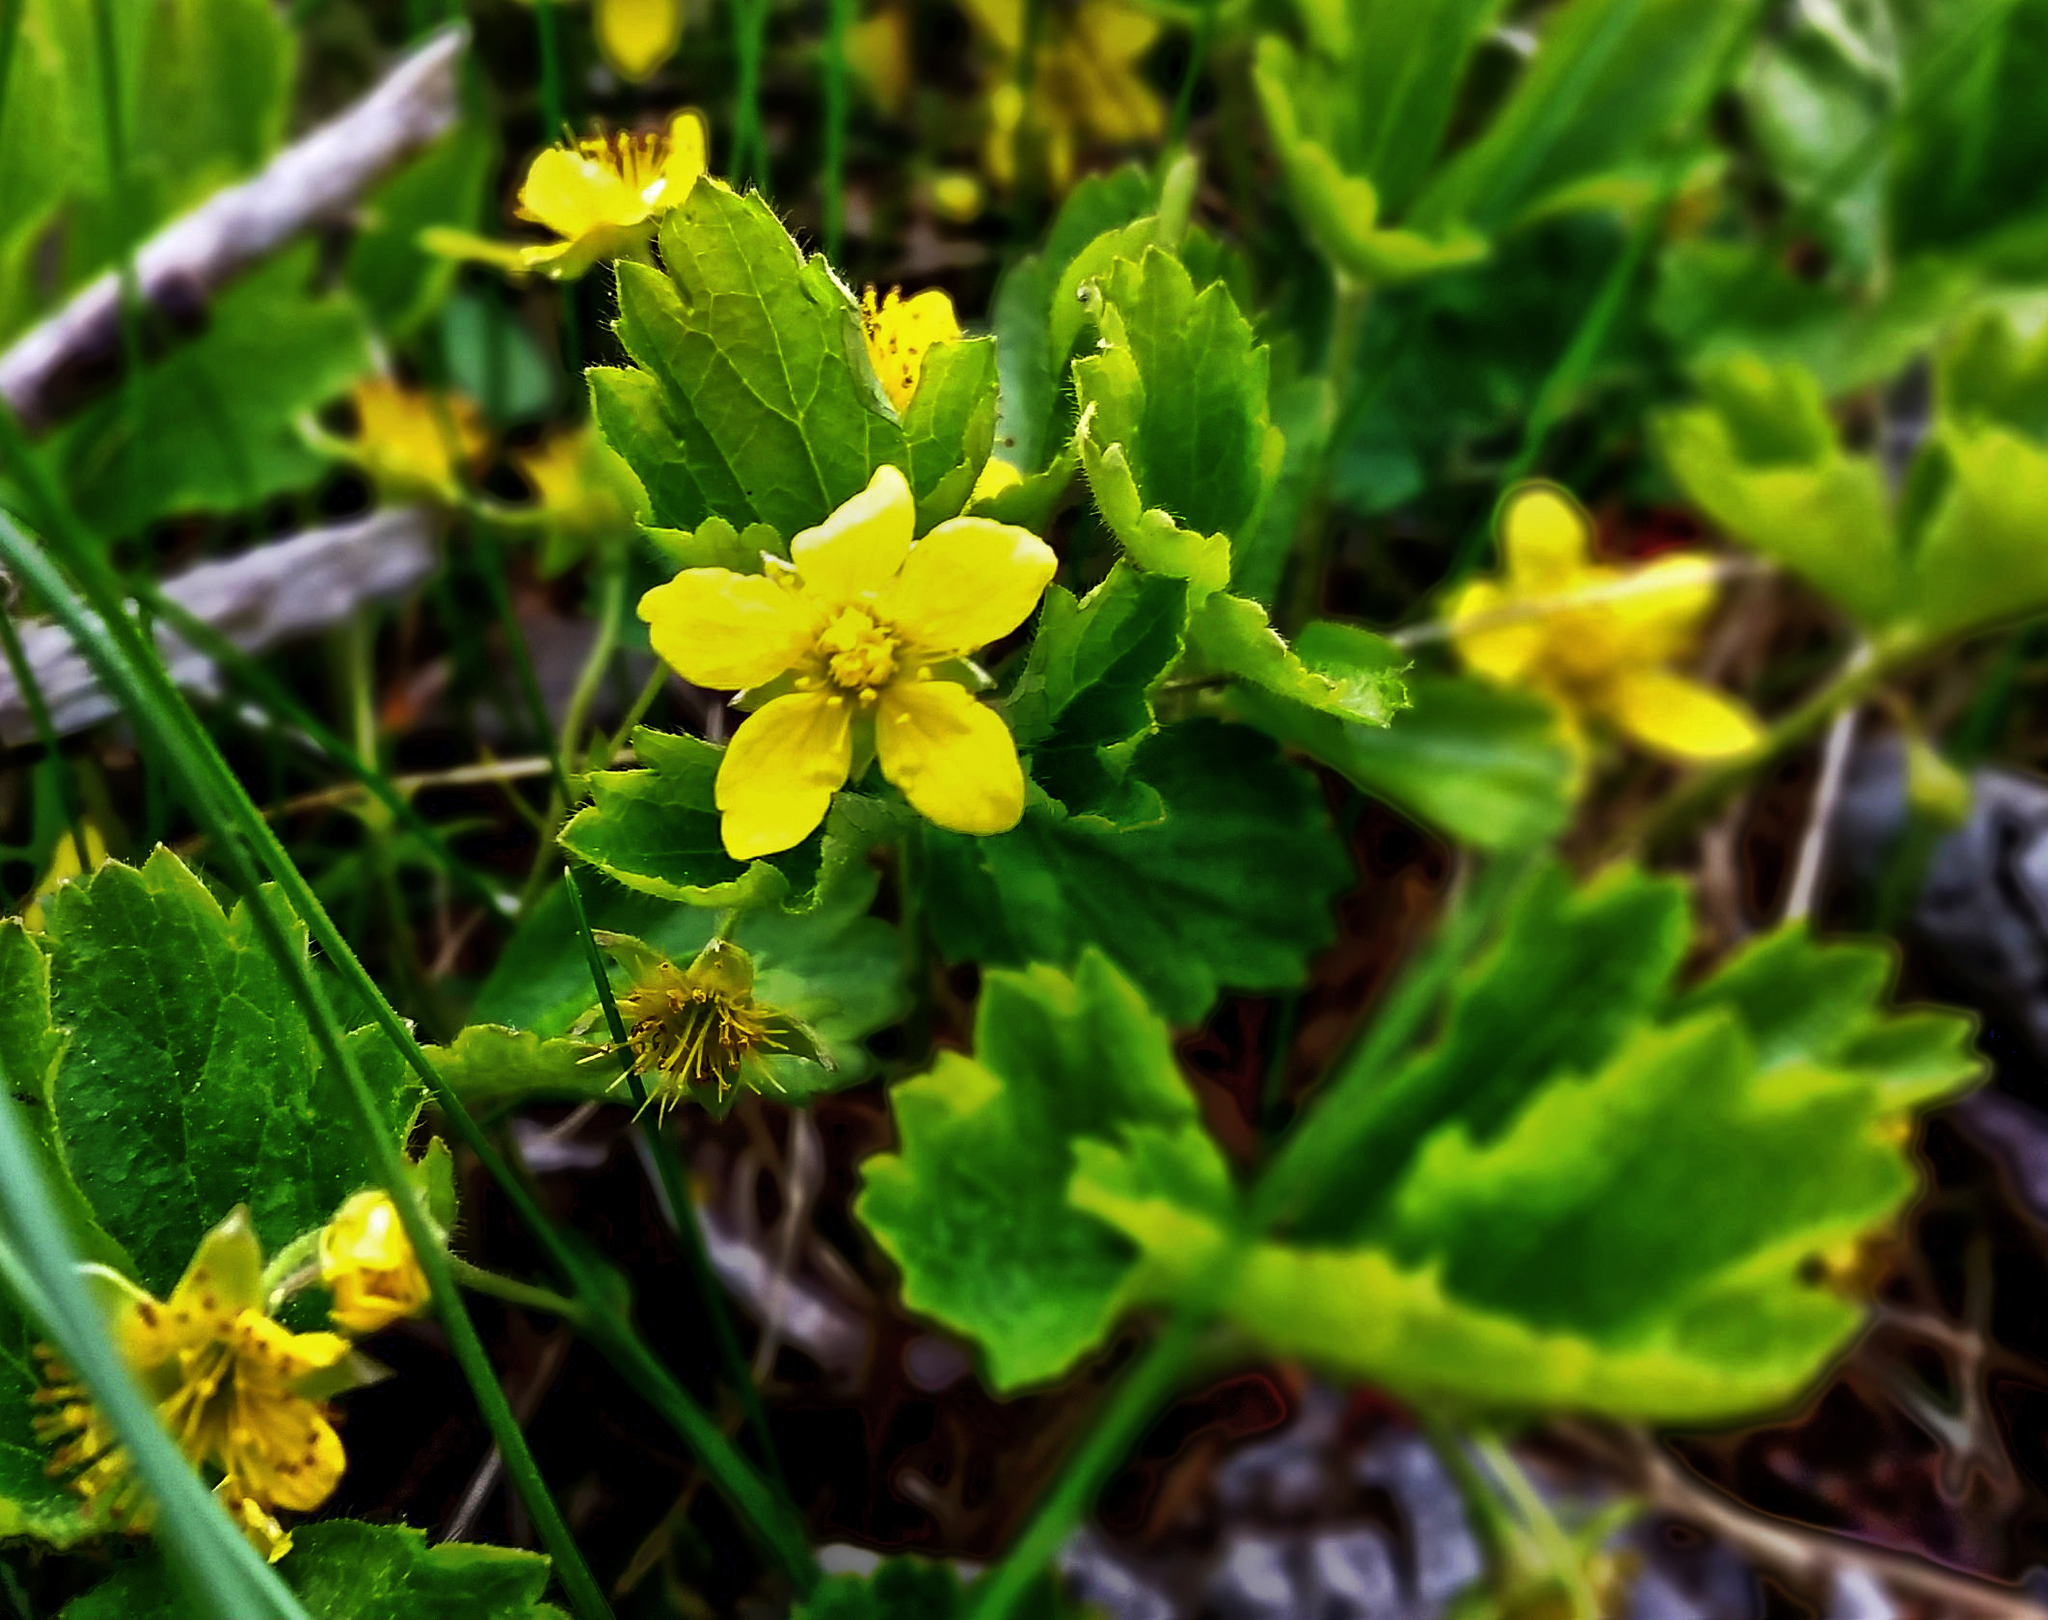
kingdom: Plantae
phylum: Tracheophyta
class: Magnoliopsida
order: Rosales
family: Rosaceae
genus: Geum
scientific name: Geum fragarioides
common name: Appalachian barren strawberry
